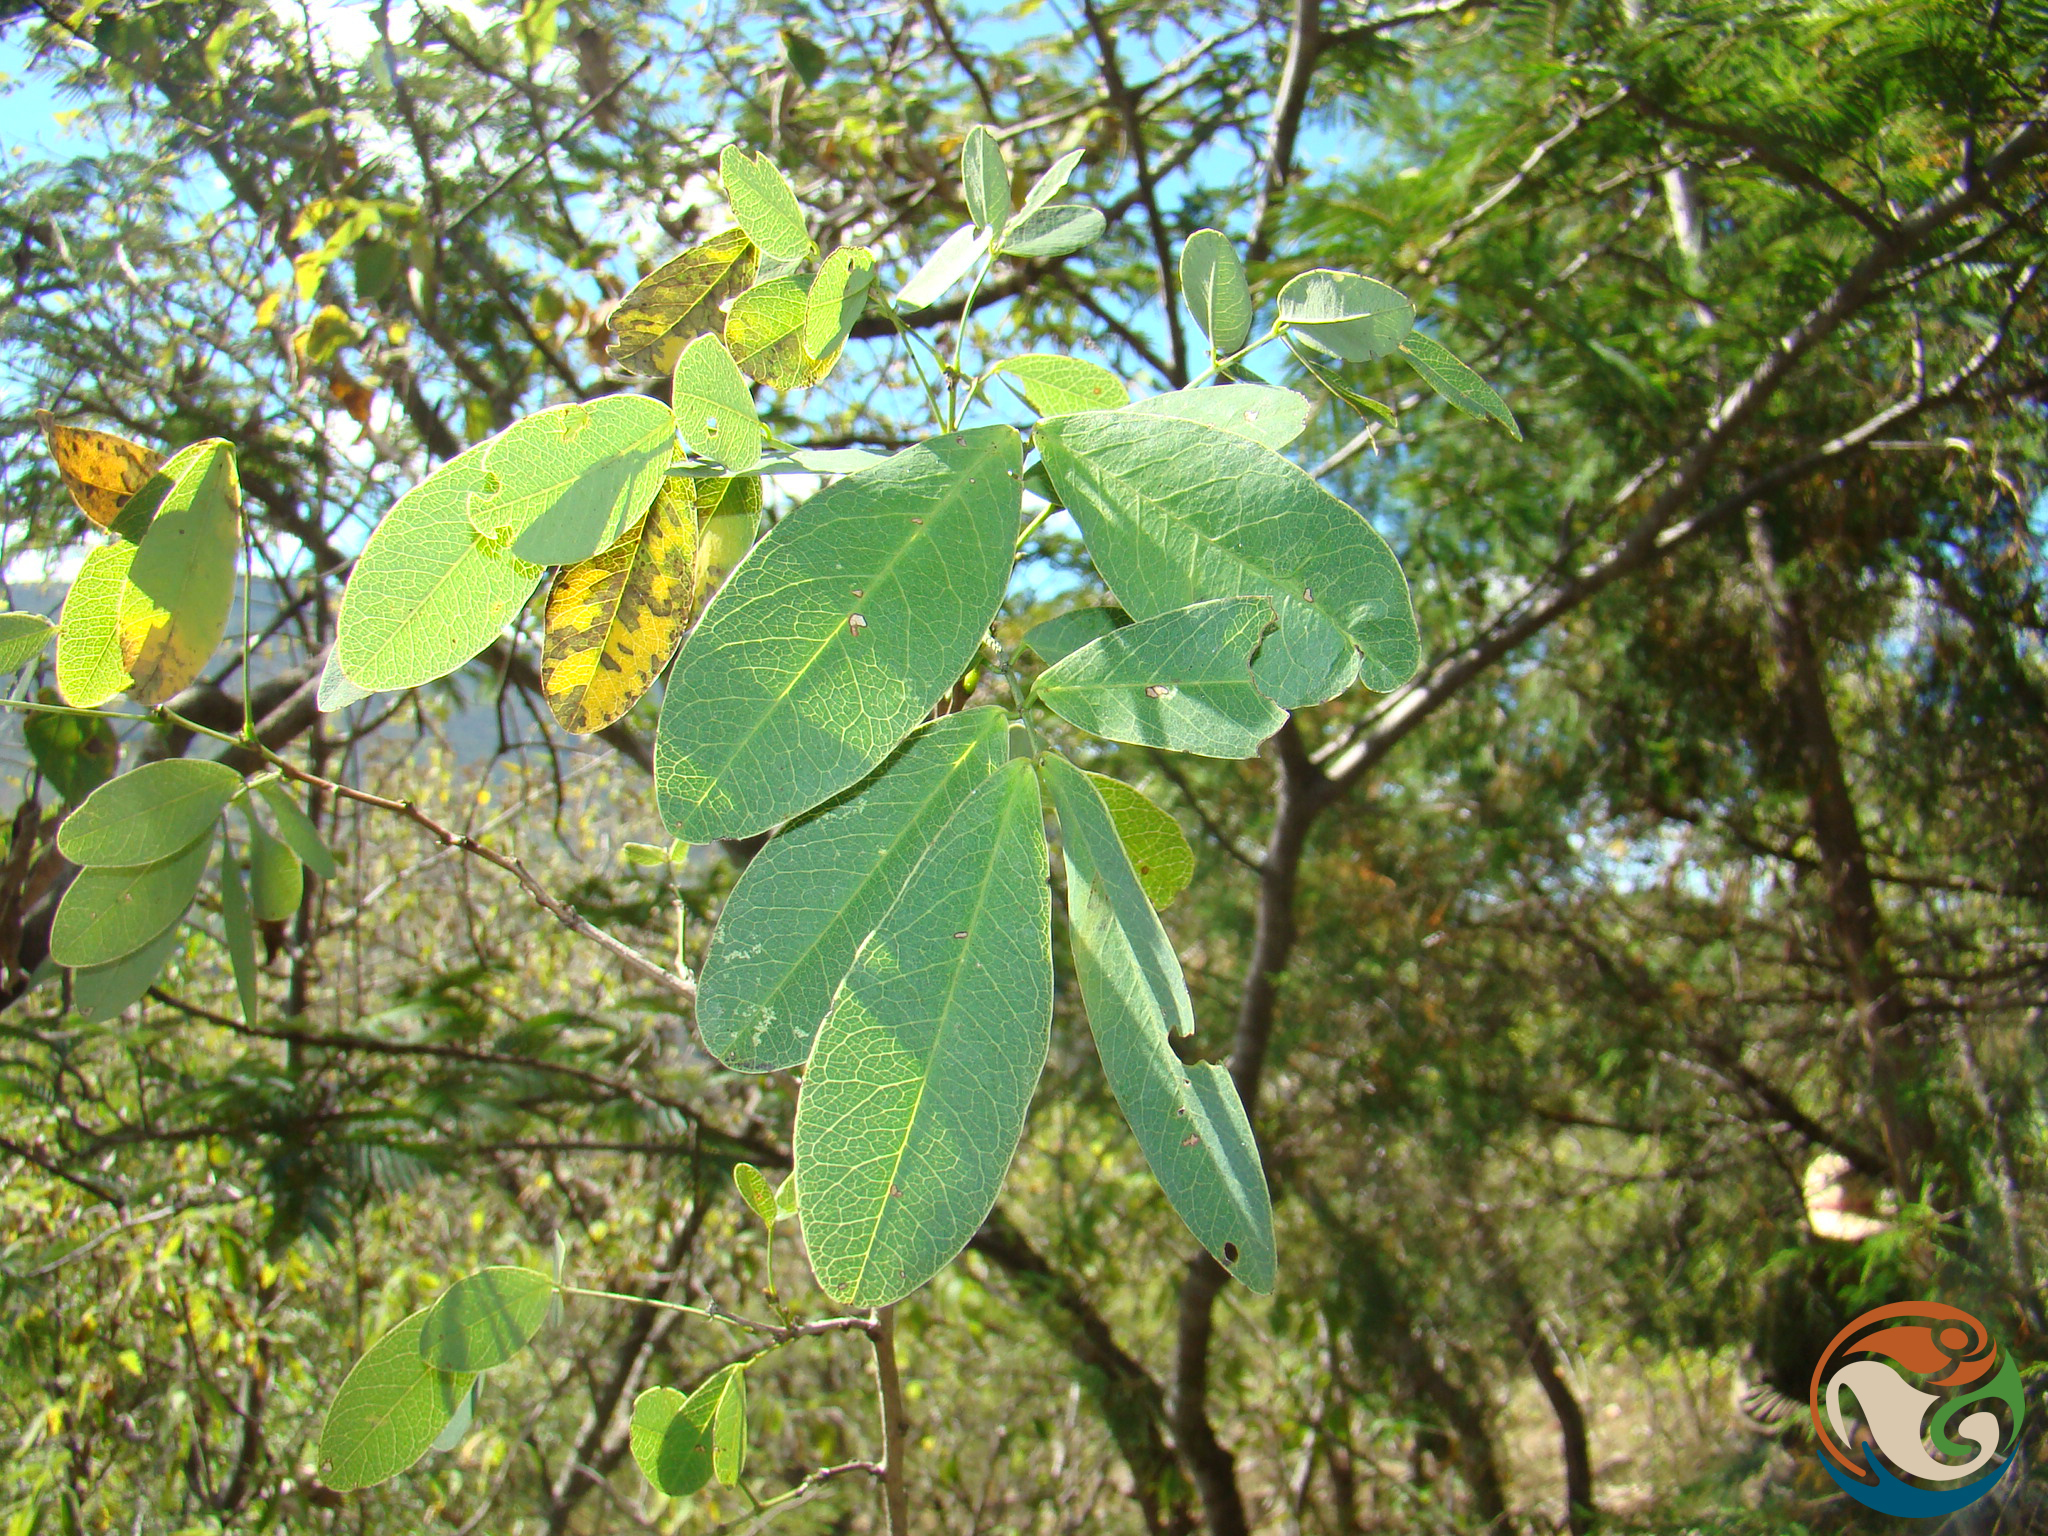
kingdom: Plantae
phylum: Tracheophyta
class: Magnoliopsida
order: Fabales
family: Fabaceae
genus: Senna
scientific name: Senna holwayana
